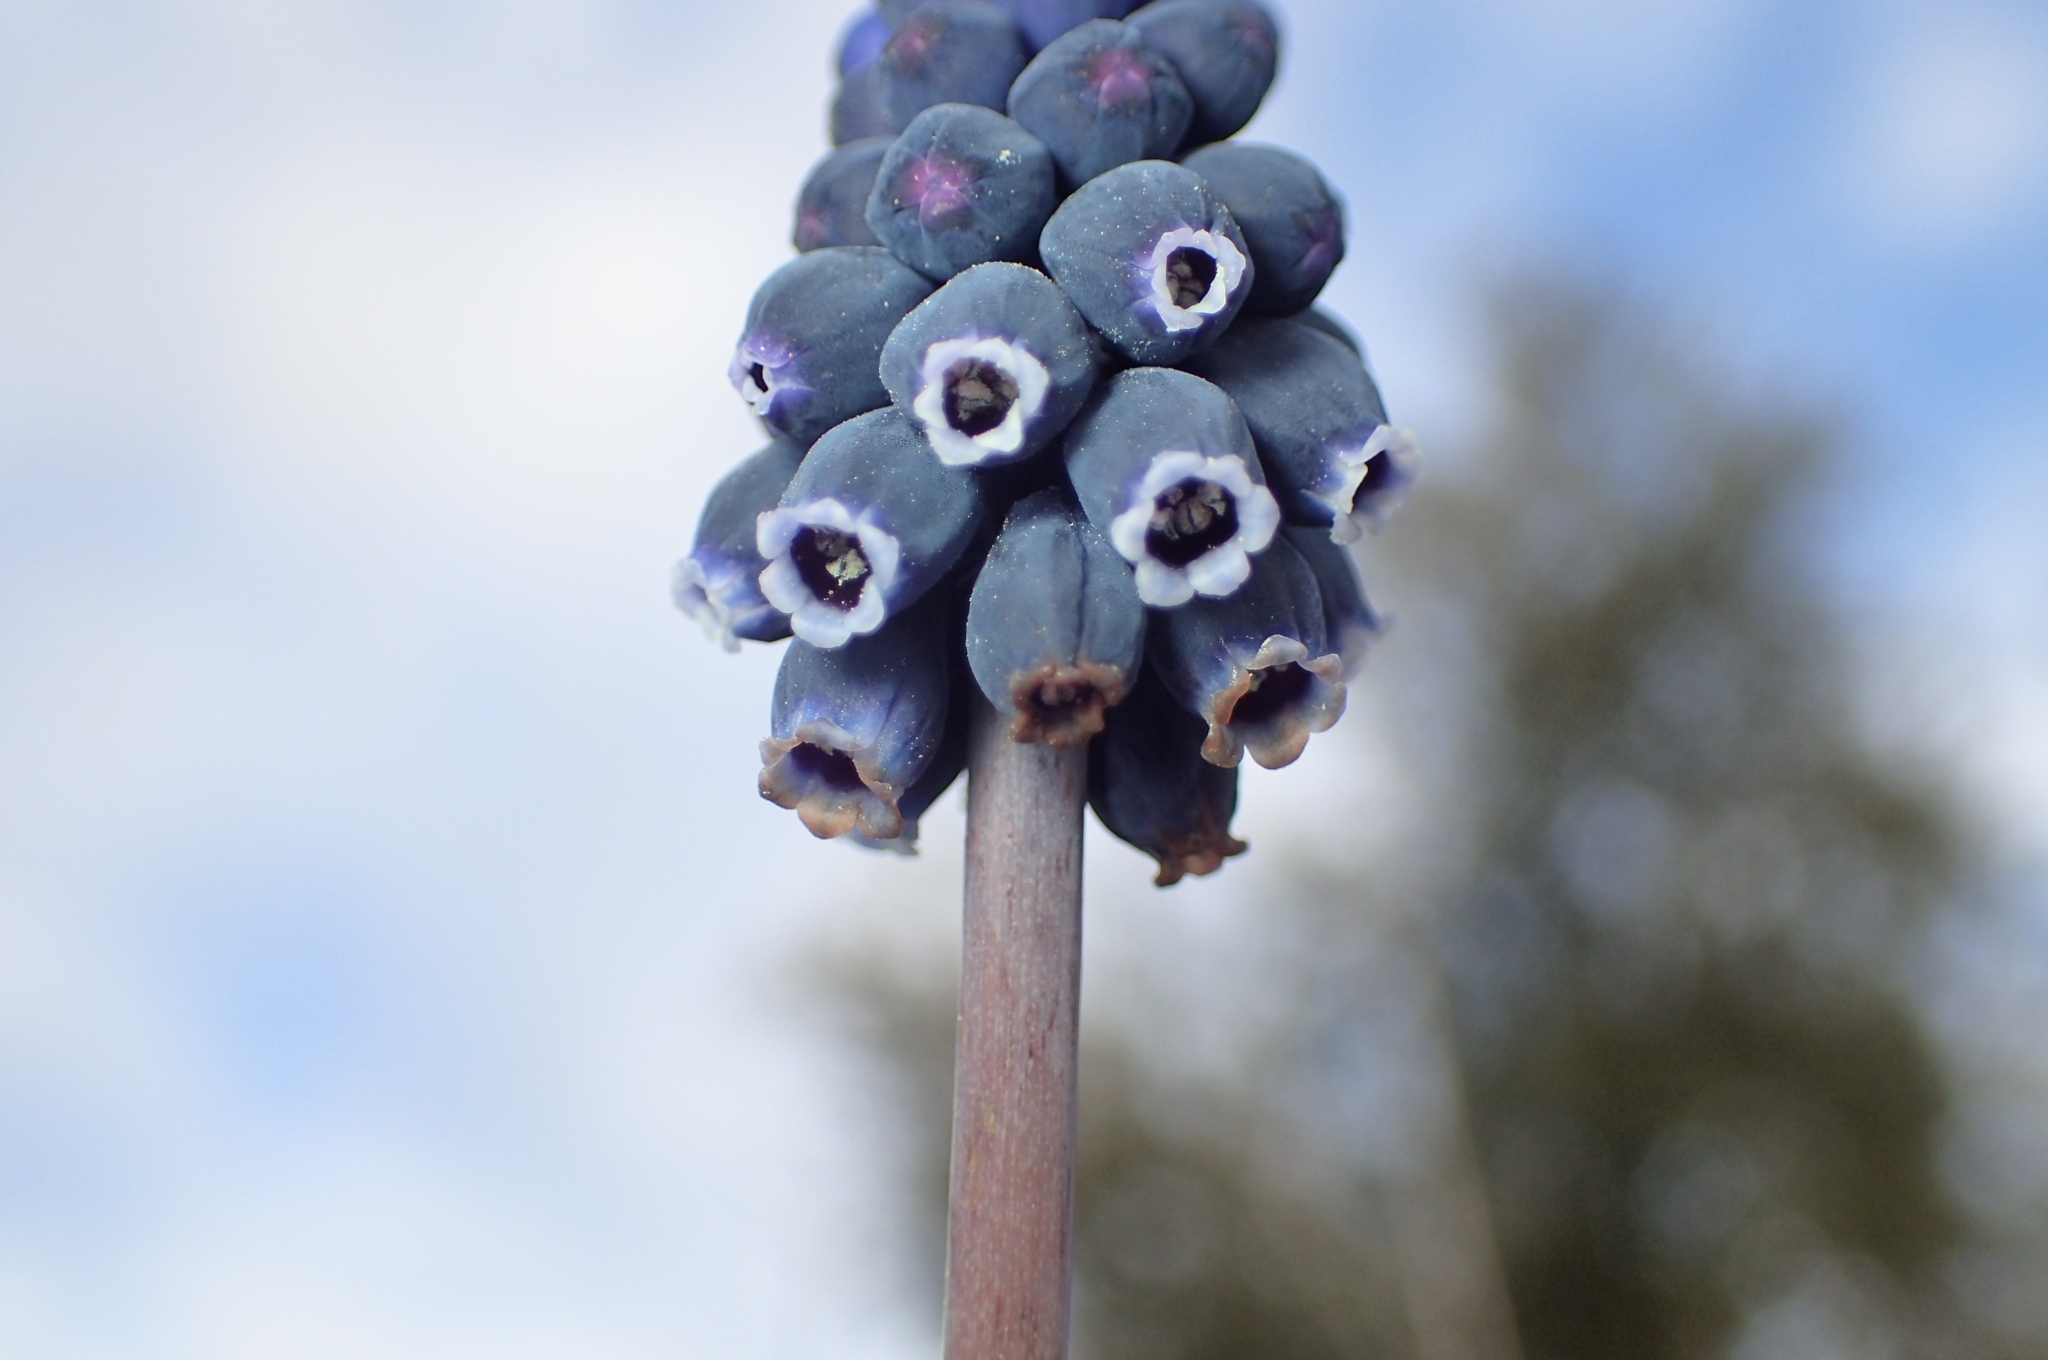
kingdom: Plantae
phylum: Tracheophyta
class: Liliopsida
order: Asparagales
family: Asparagaceae
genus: Muscari
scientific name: Muscari neglectum
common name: Grape-hyacinth
